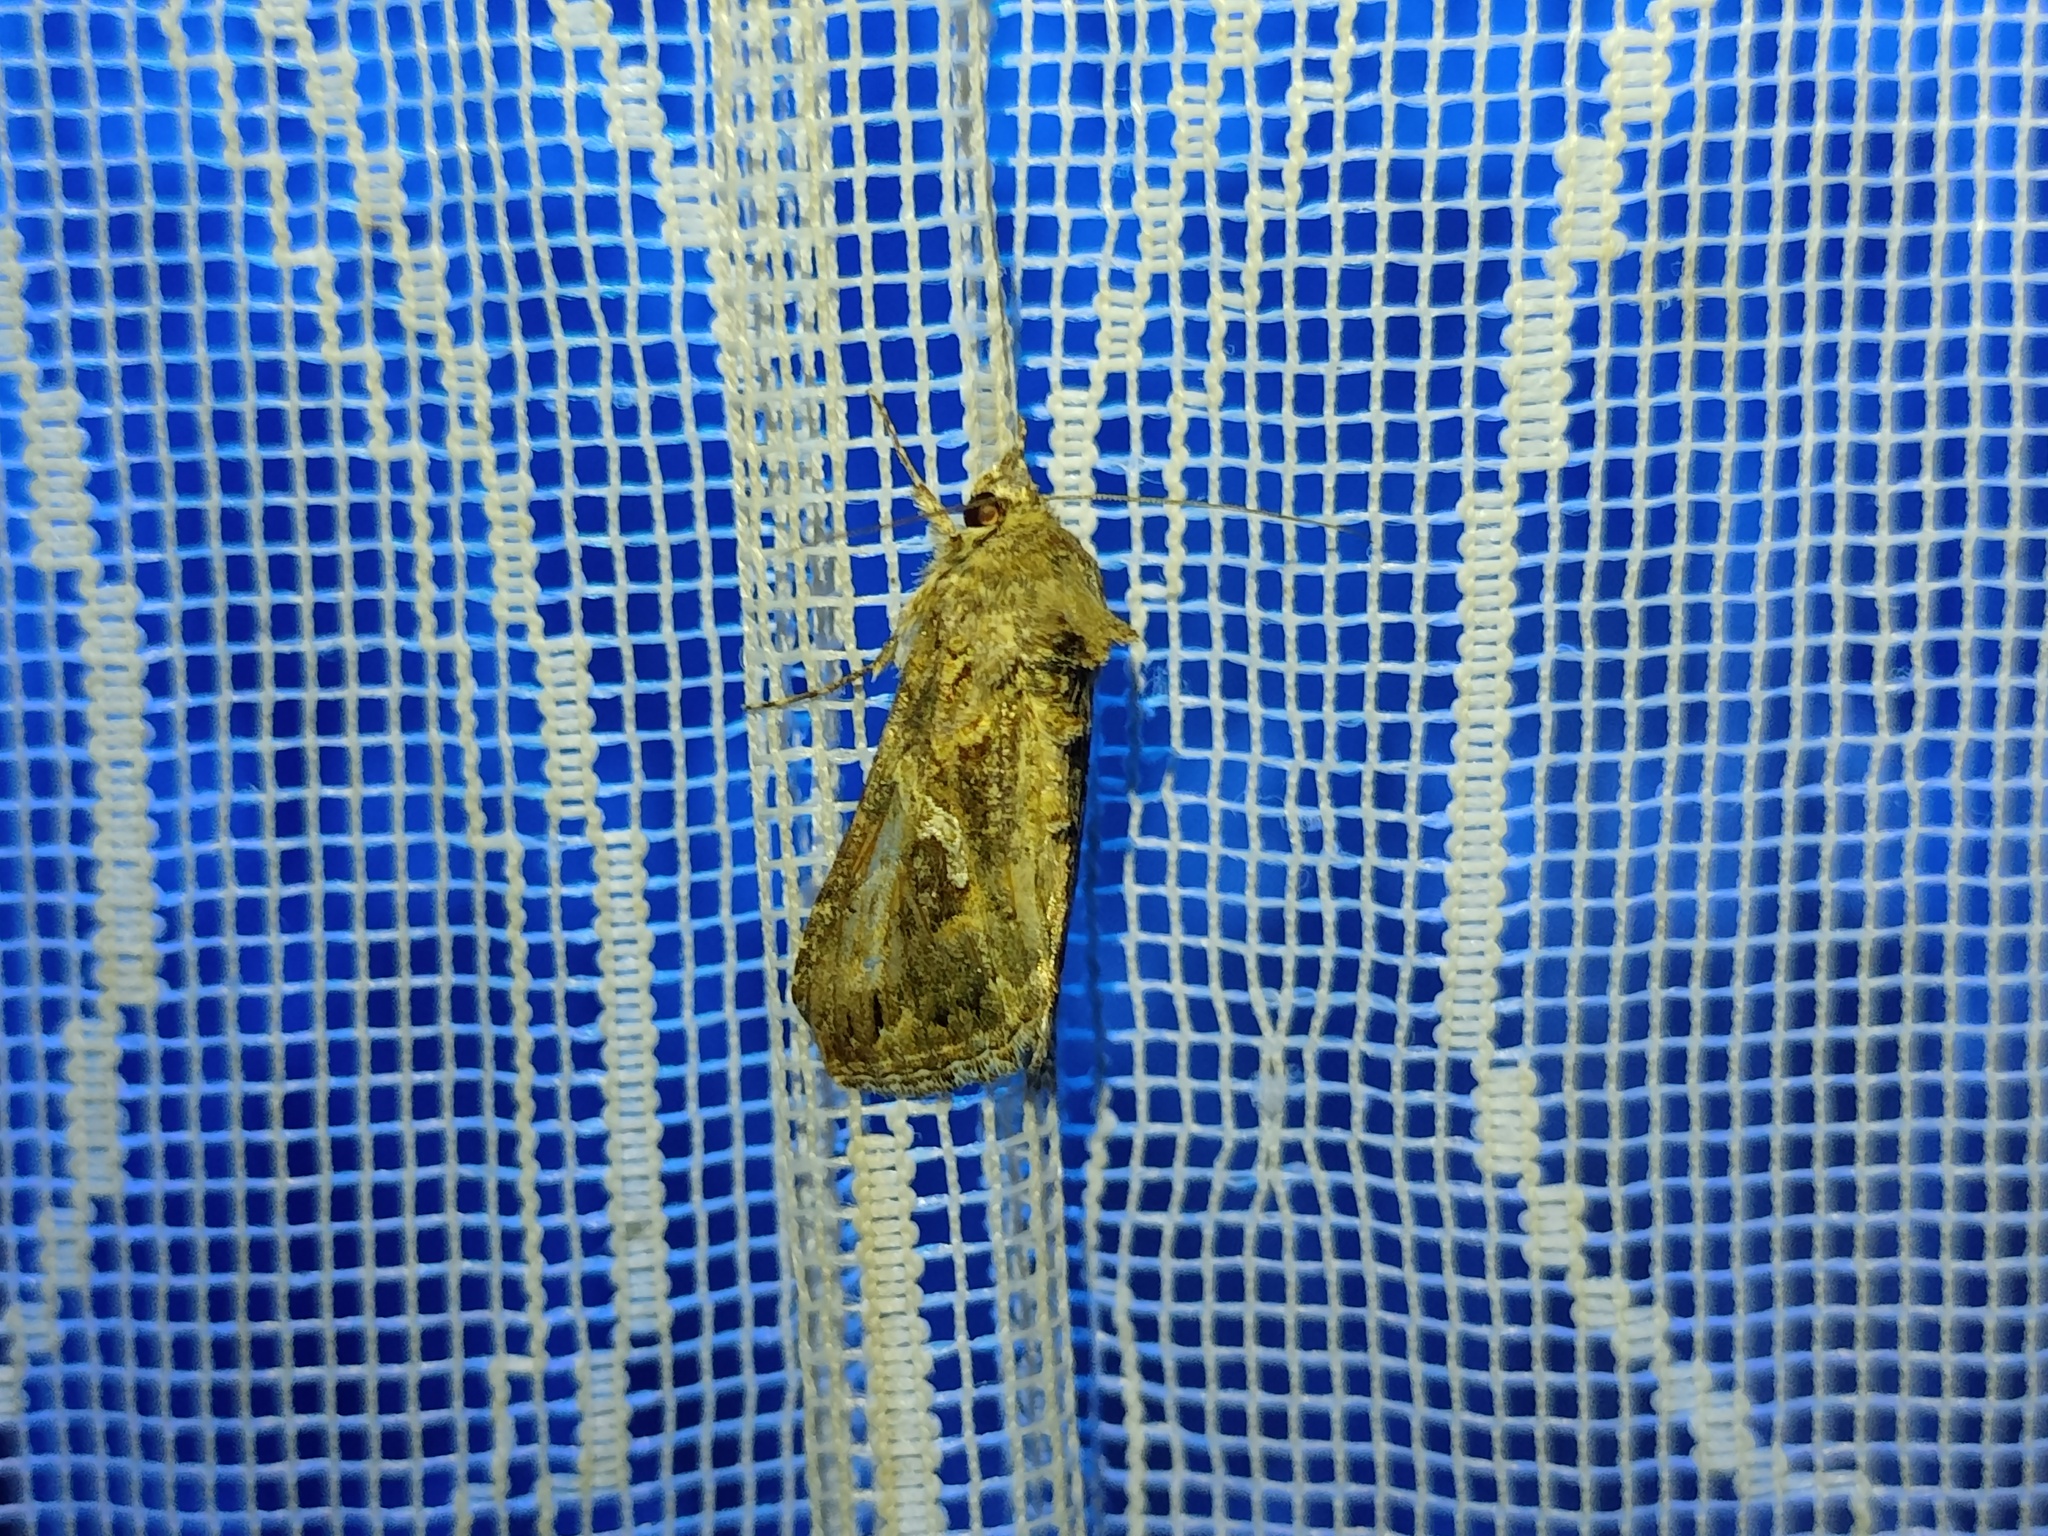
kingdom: Animalia
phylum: Arthropoda
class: Insecta
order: Lepidoptera
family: Noctuidae
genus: Trichoplusia
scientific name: Trichoplusia ni
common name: Ni moth
